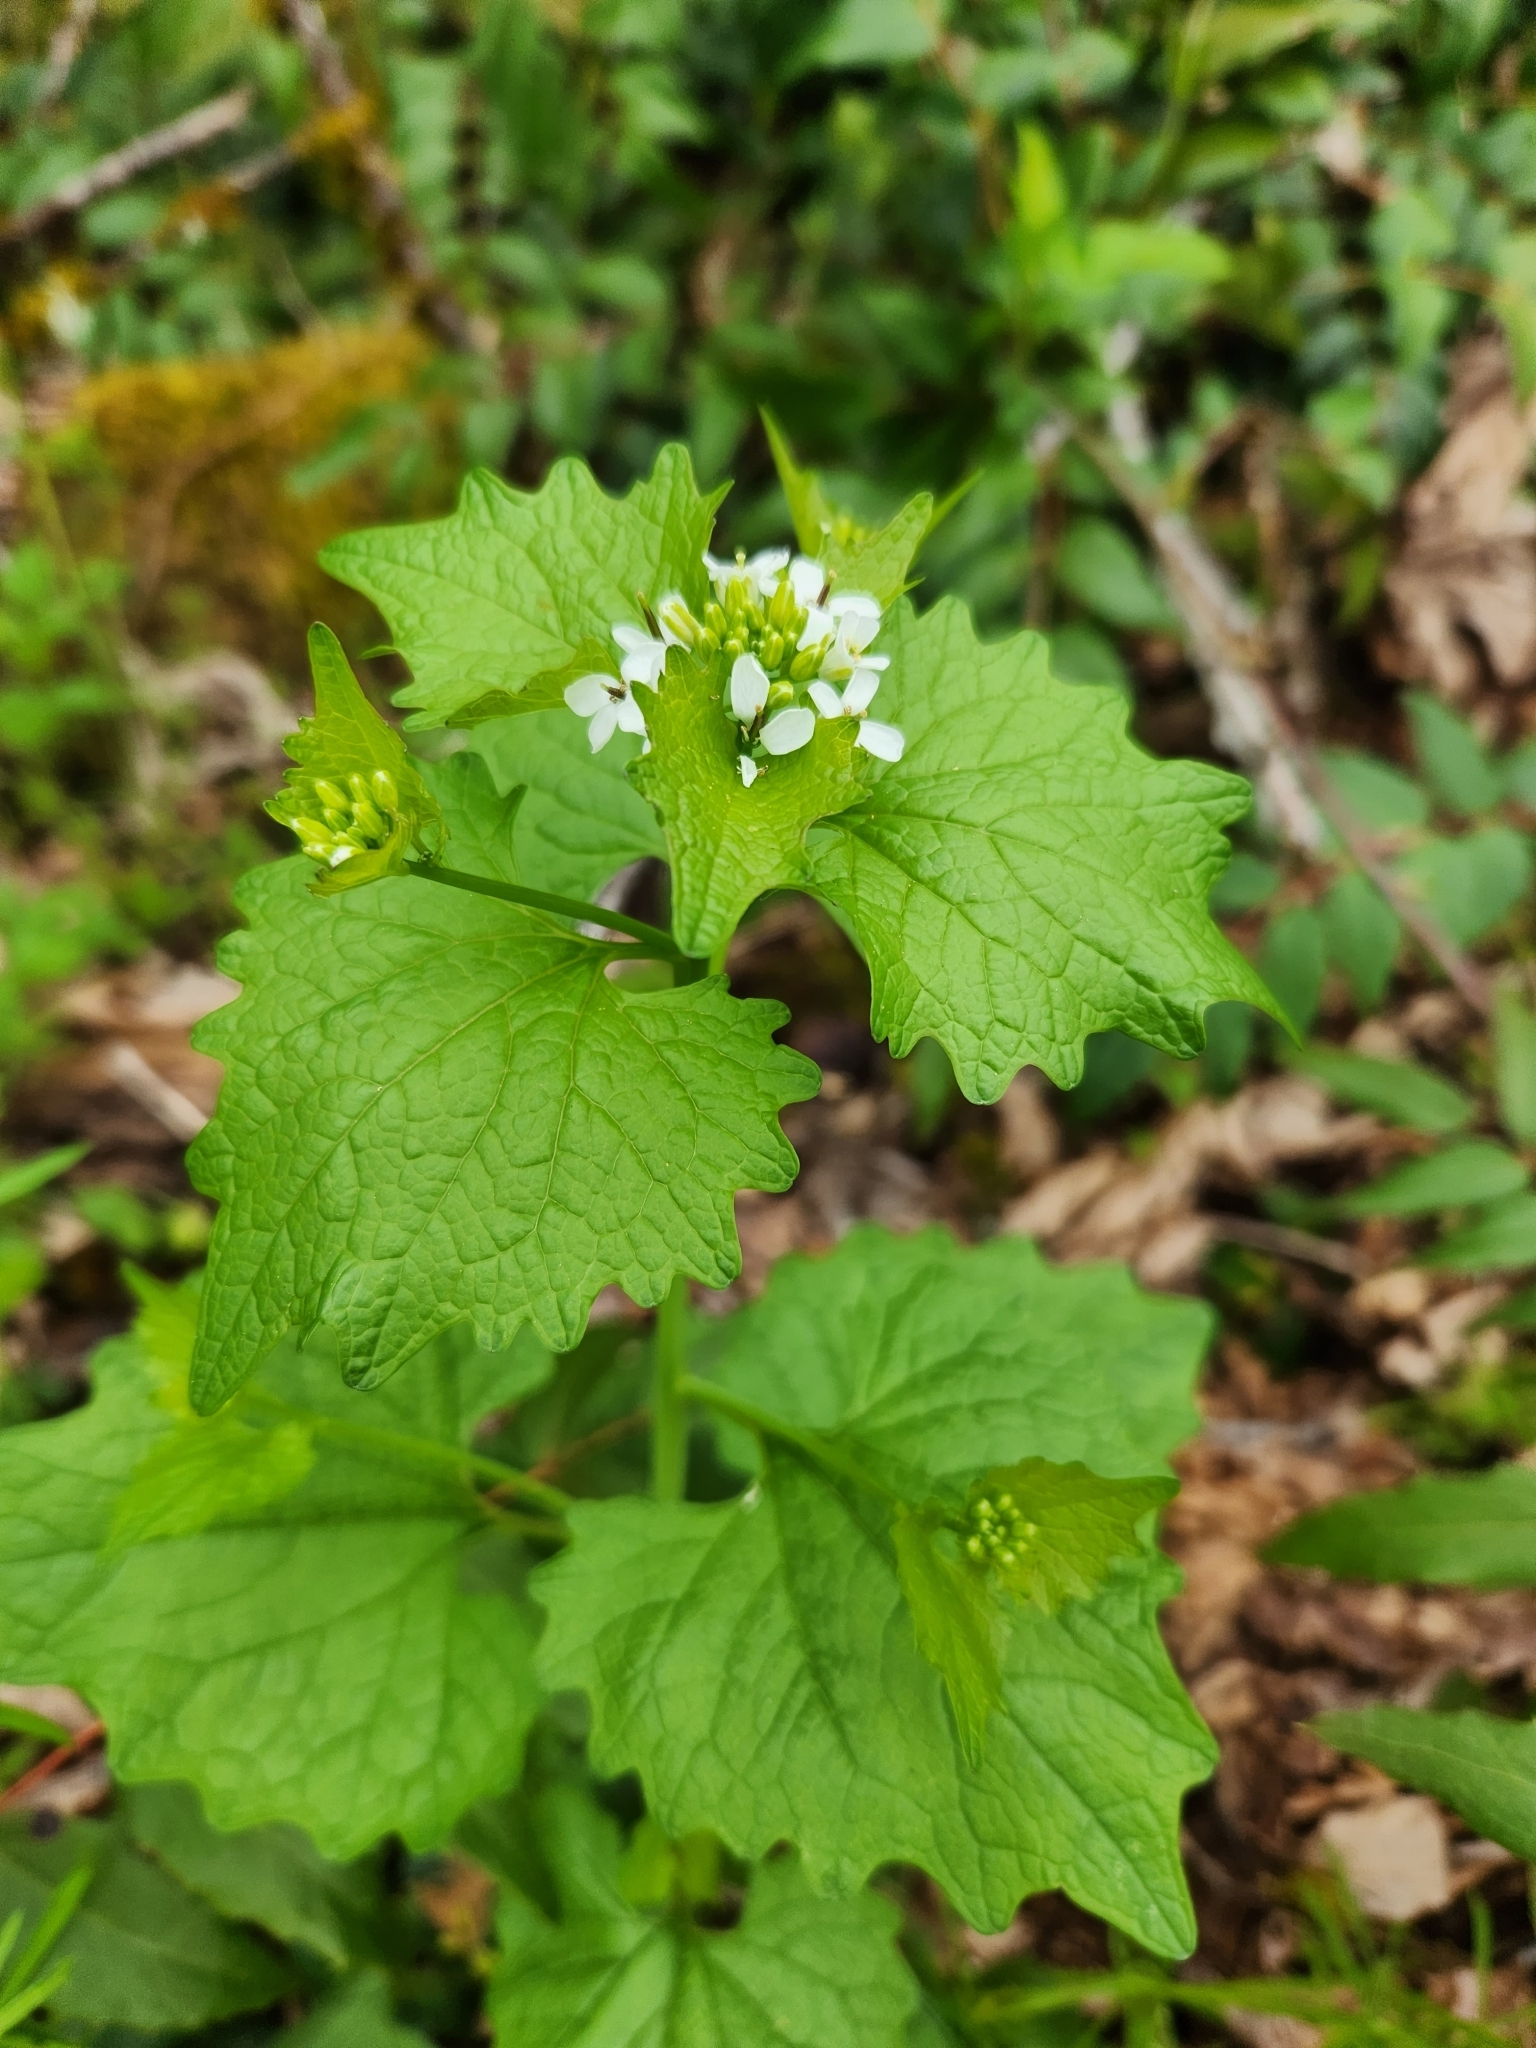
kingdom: Plantae
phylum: Tracheophyta
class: Magnoliopsida
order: Brassicales
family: Brassicaceae
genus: Alliaria
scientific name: Alliaria petiolata
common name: Garlic mustard
